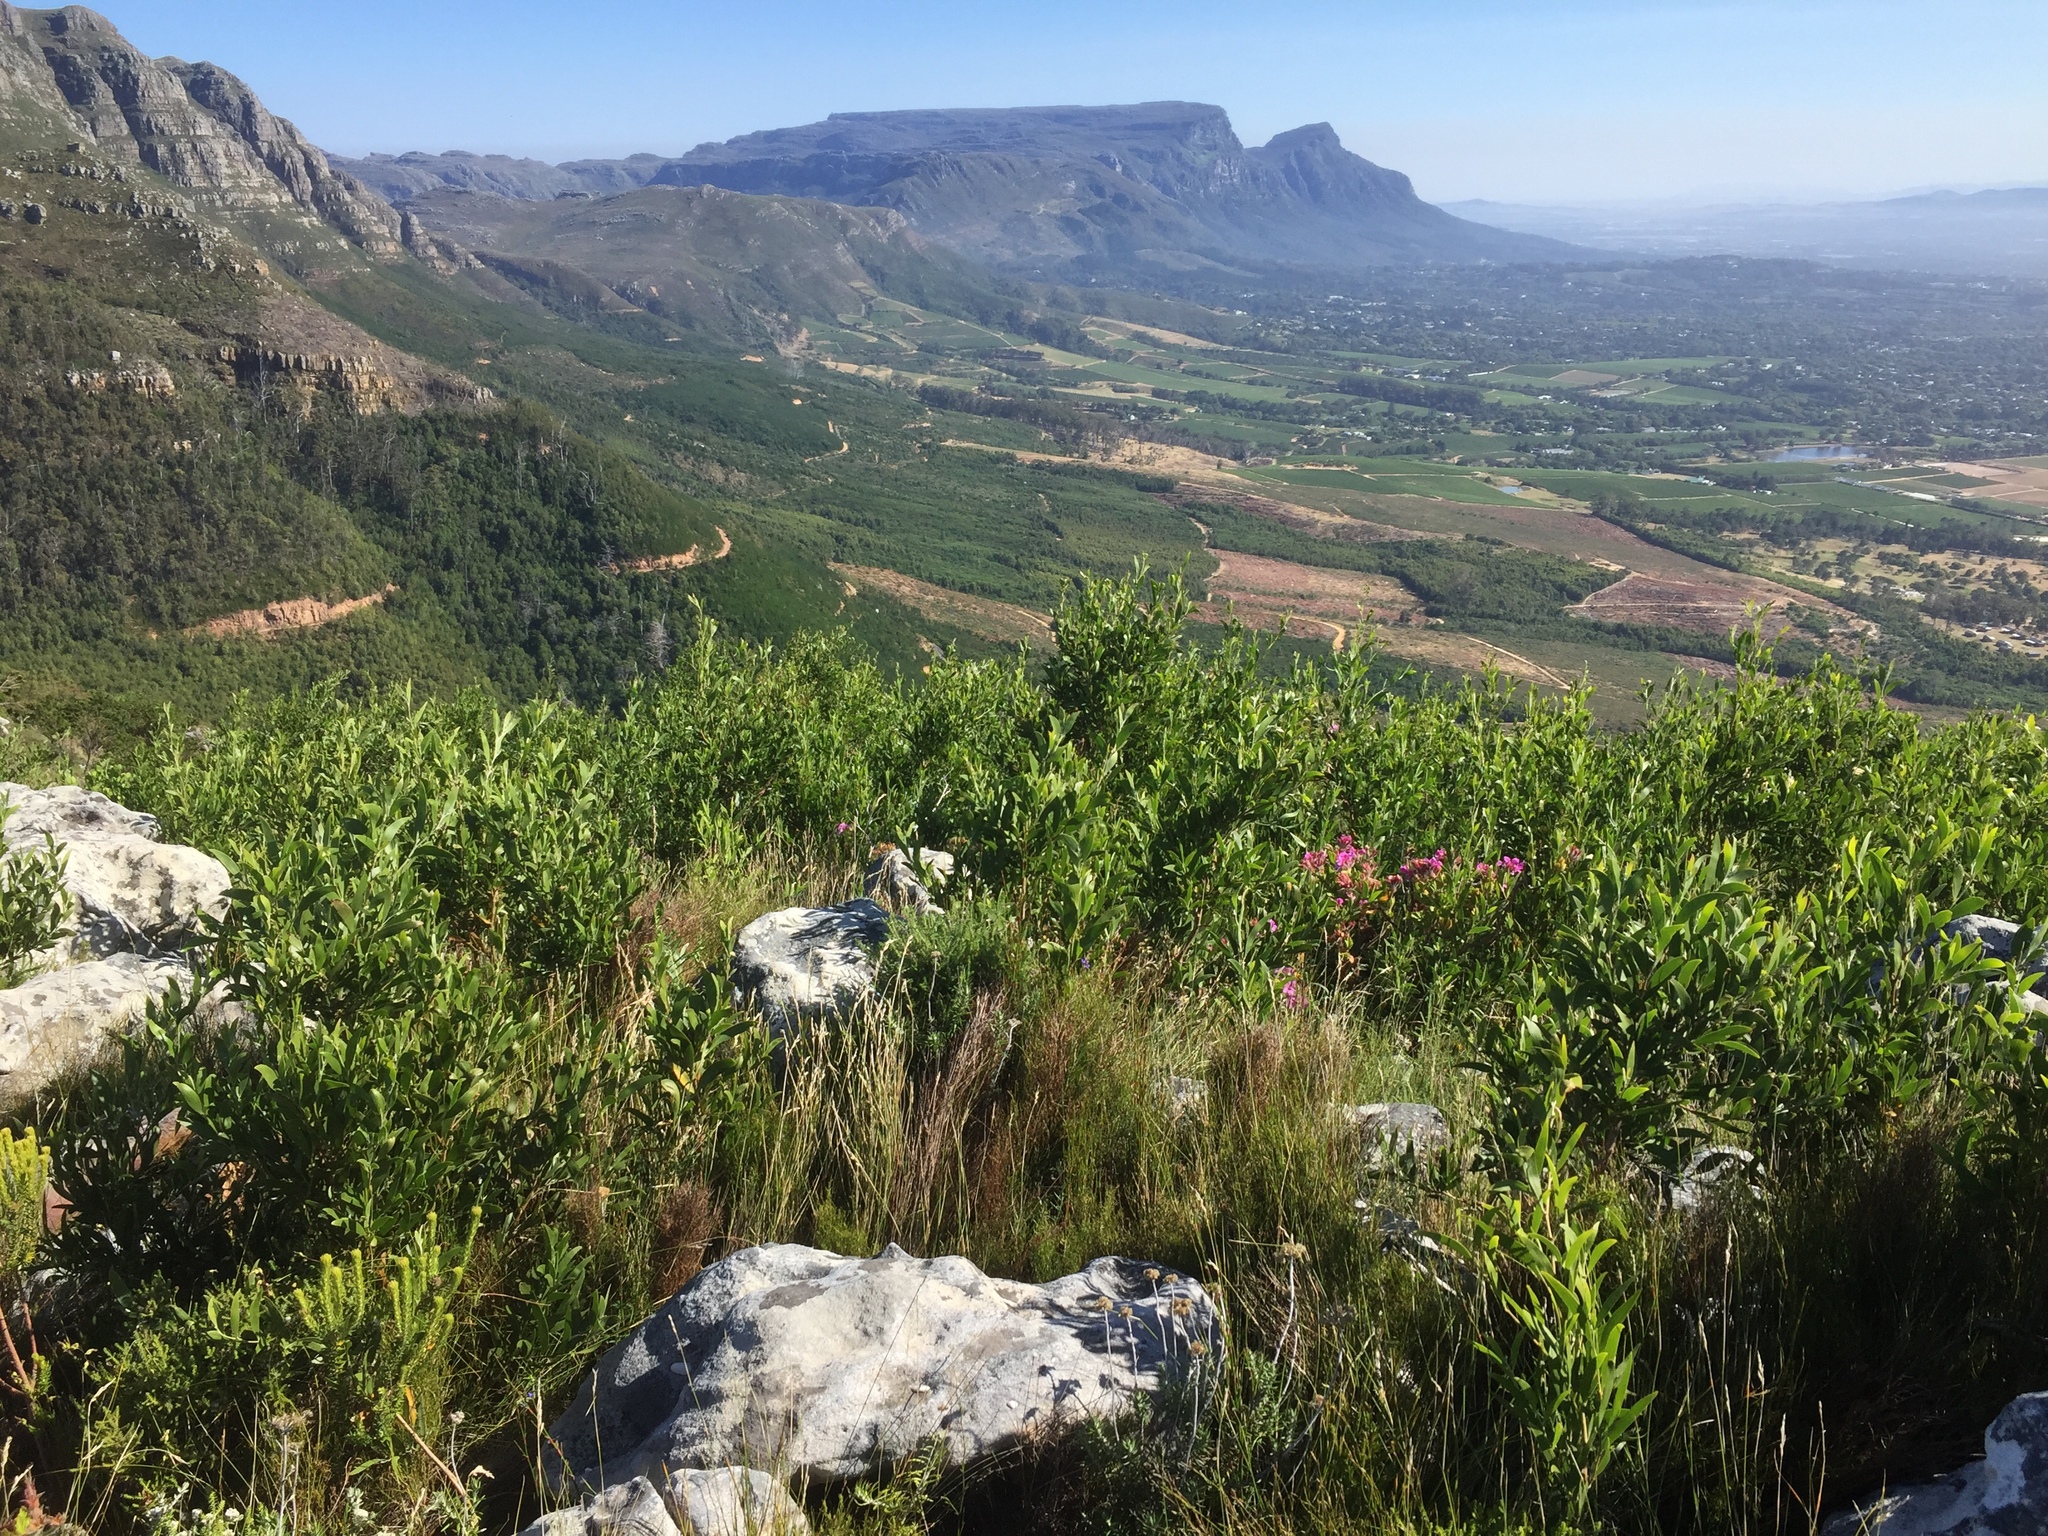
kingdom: Plantae
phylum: Tracheophyta
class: Magnoliopsida
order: Fabales
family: Fabaceae
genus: Acacia
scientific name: Acacia melanoxylon
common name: Blackwood
